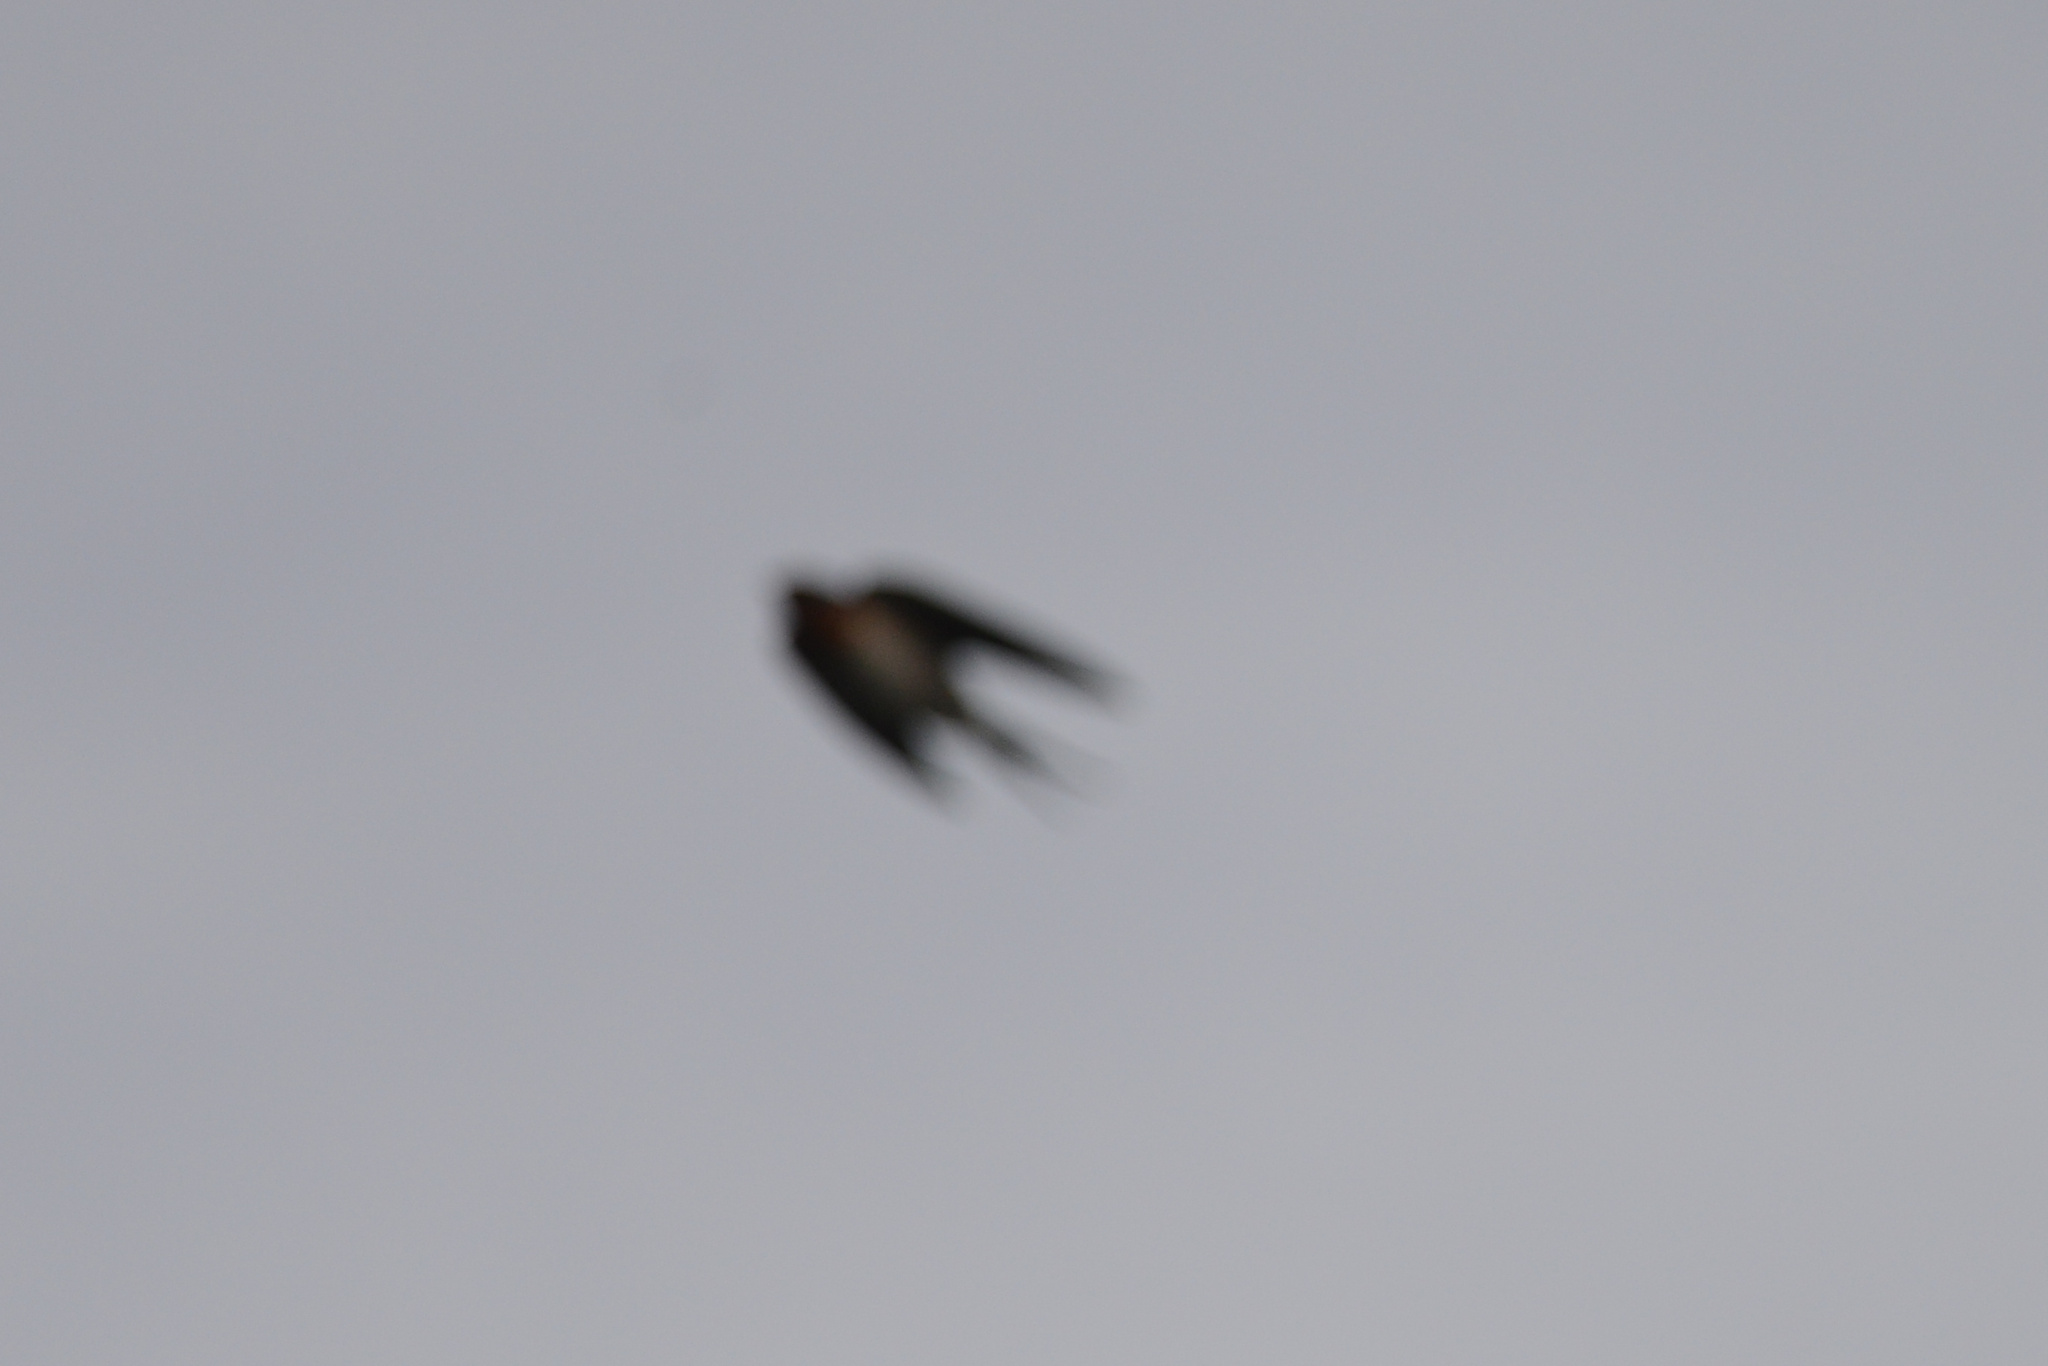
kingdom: Animalia
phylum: Chordata
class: Aves
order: Passeriformes
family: Hirundinidae
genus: Hirundo
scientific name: Hirundo neoxena
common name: Welcome swallow
